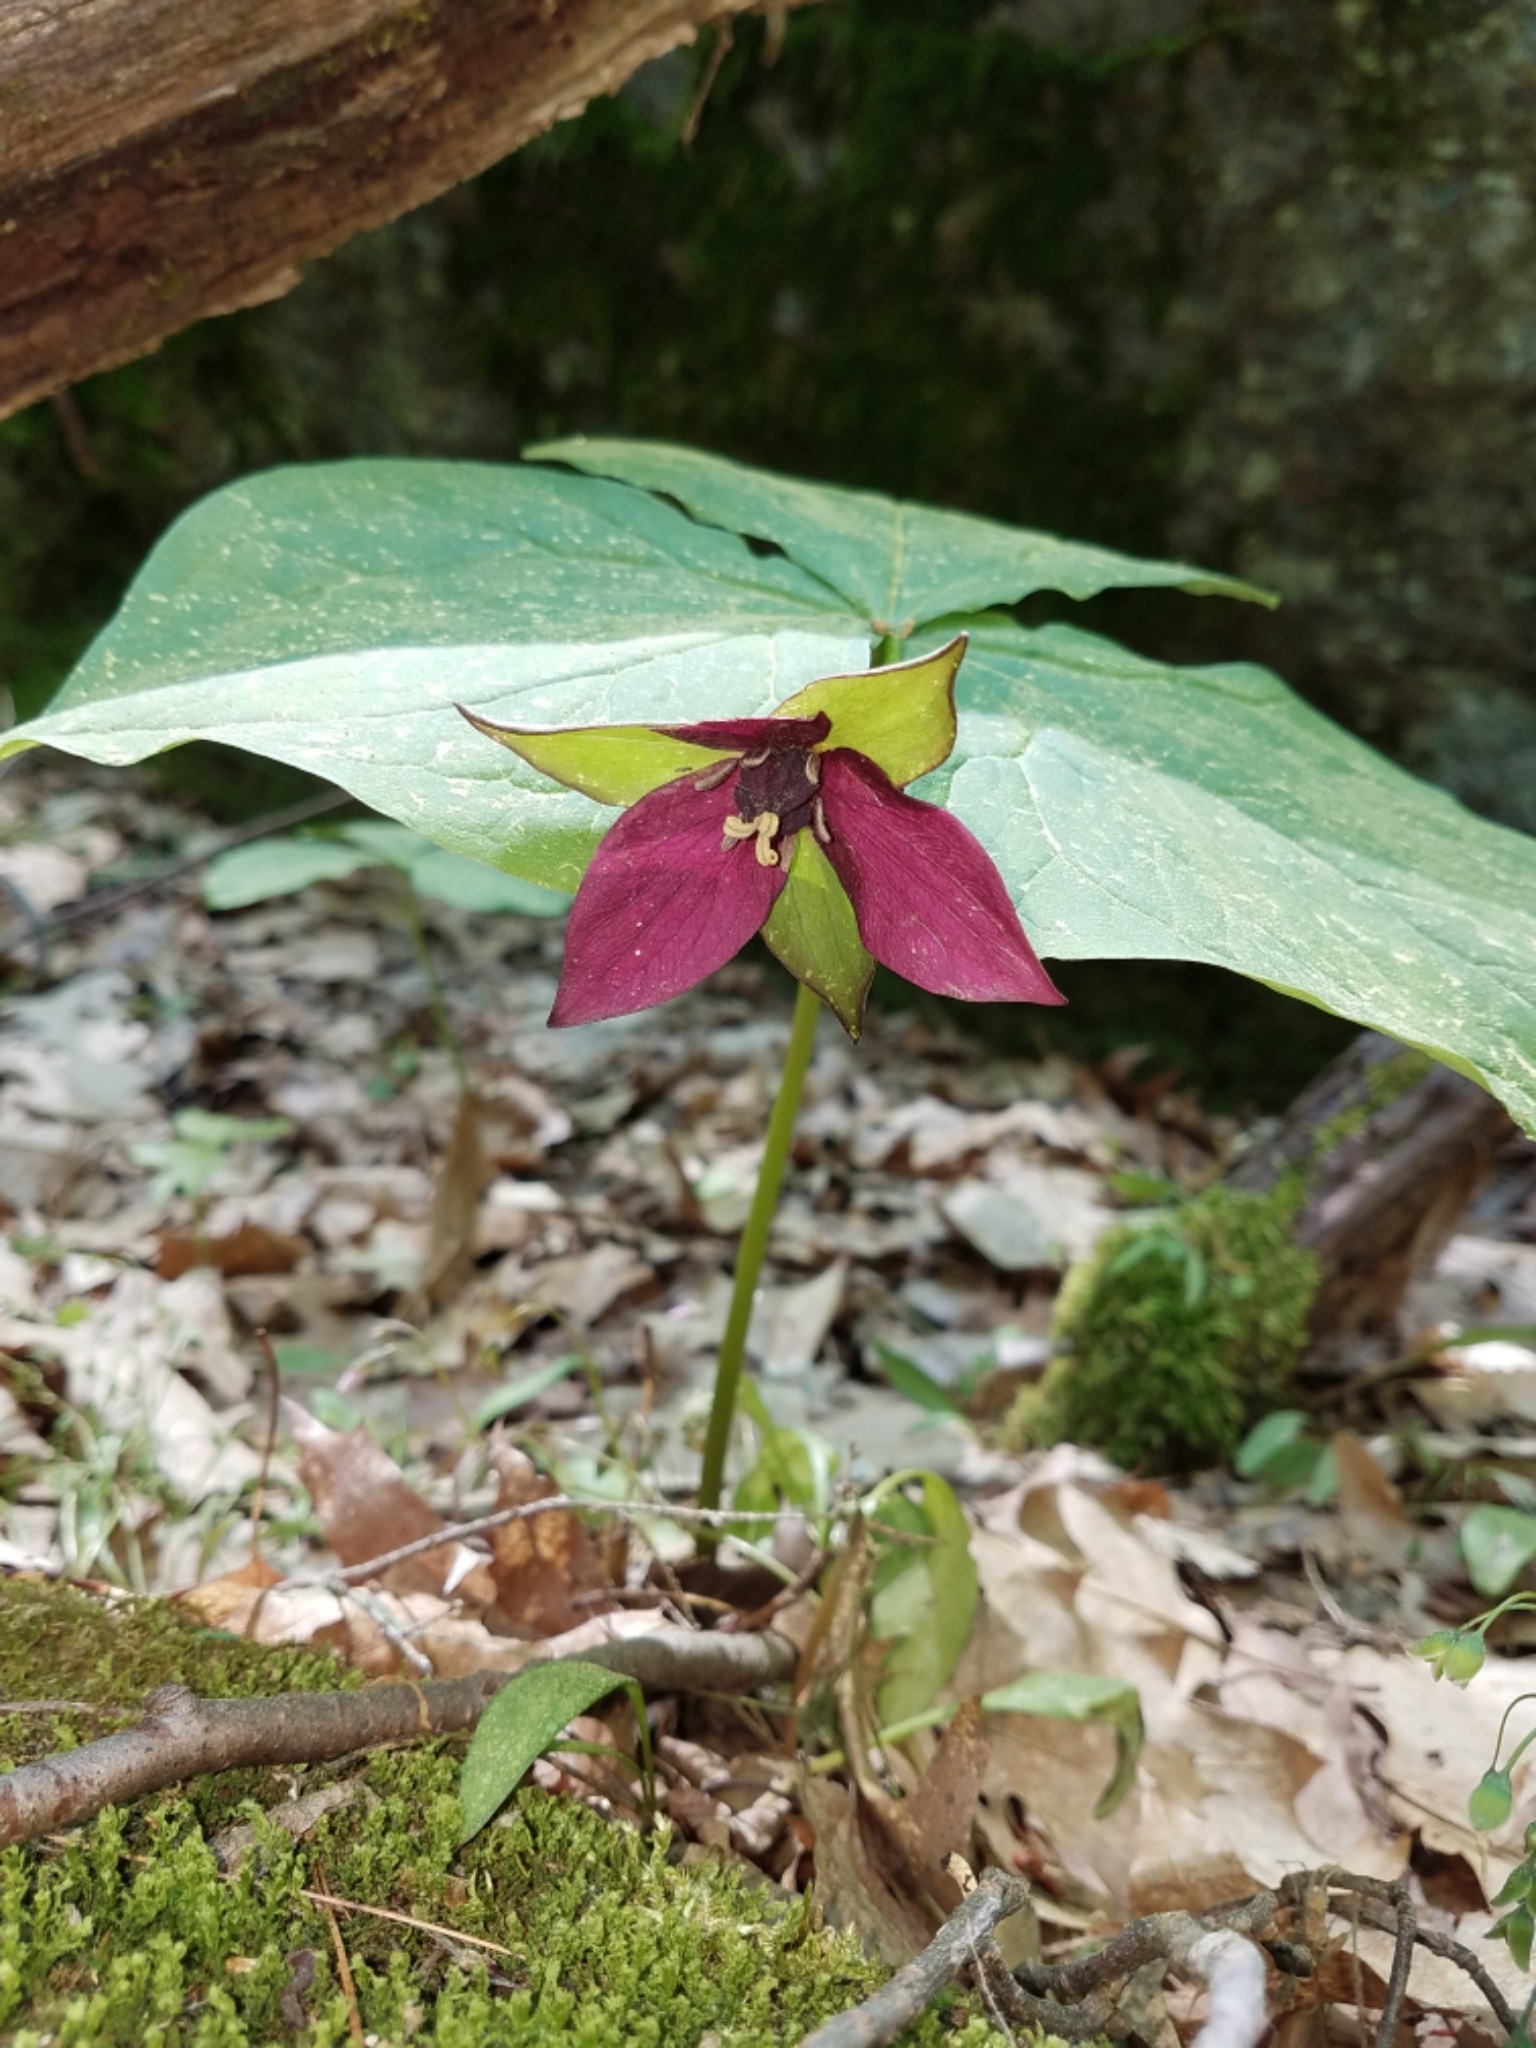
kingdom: Plantae
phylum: Tracheophyta
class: Liliopsida
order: Liliales
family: Melanthiaceae
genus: Trillium
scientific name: Trillium erectum
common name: Purple trillium
